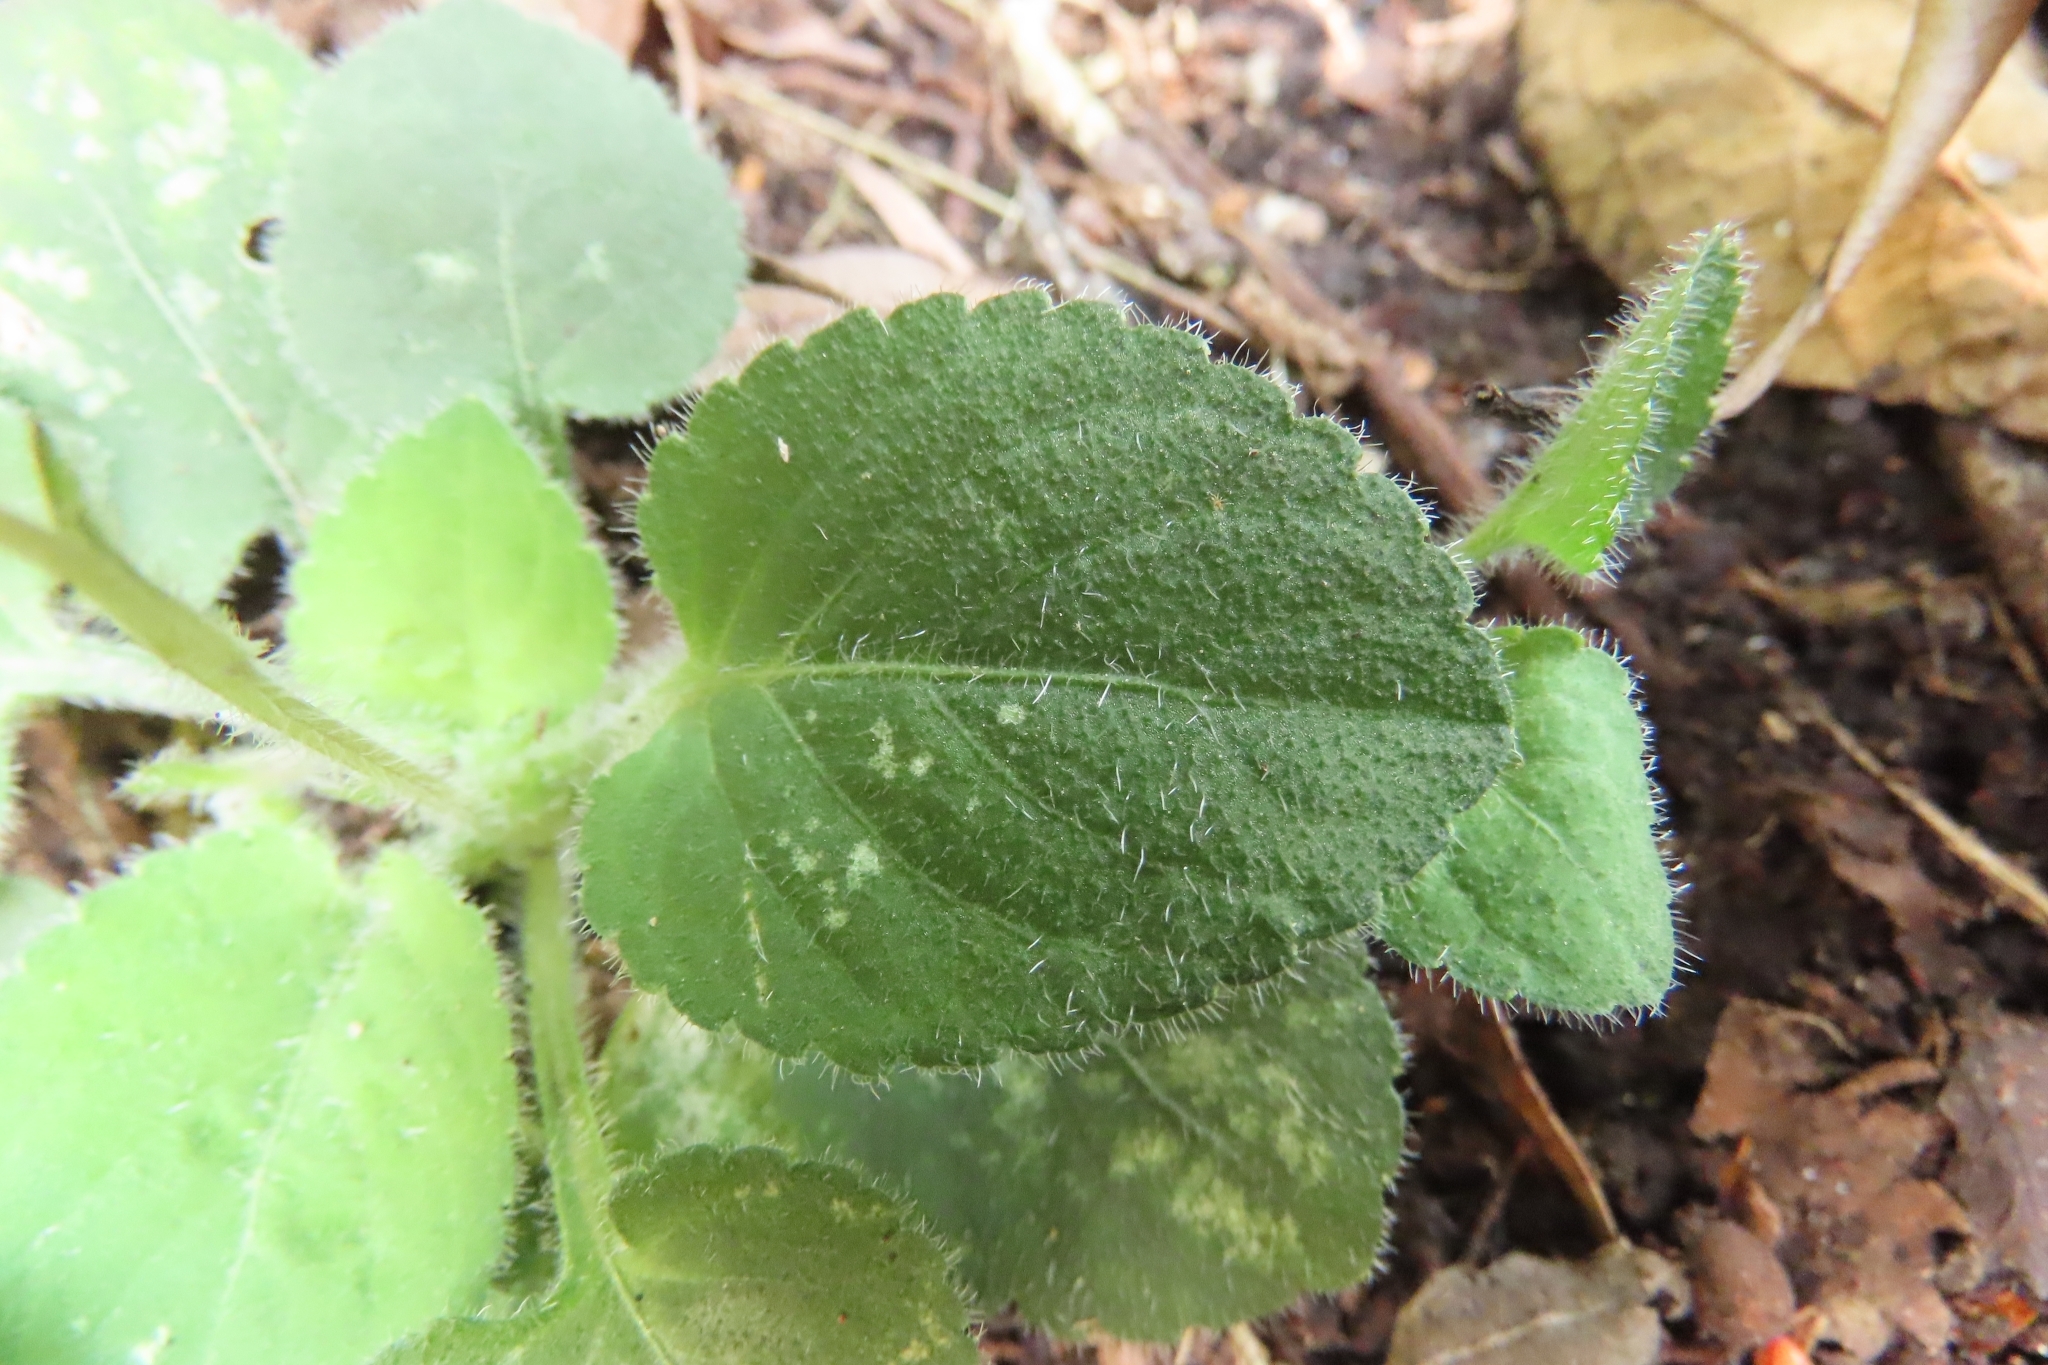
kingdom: Plantae
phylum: Tracheophyta
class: Magnoliopsida
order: Malpighiales
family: Violaceae
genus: Viola
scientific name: Viola diffusa
